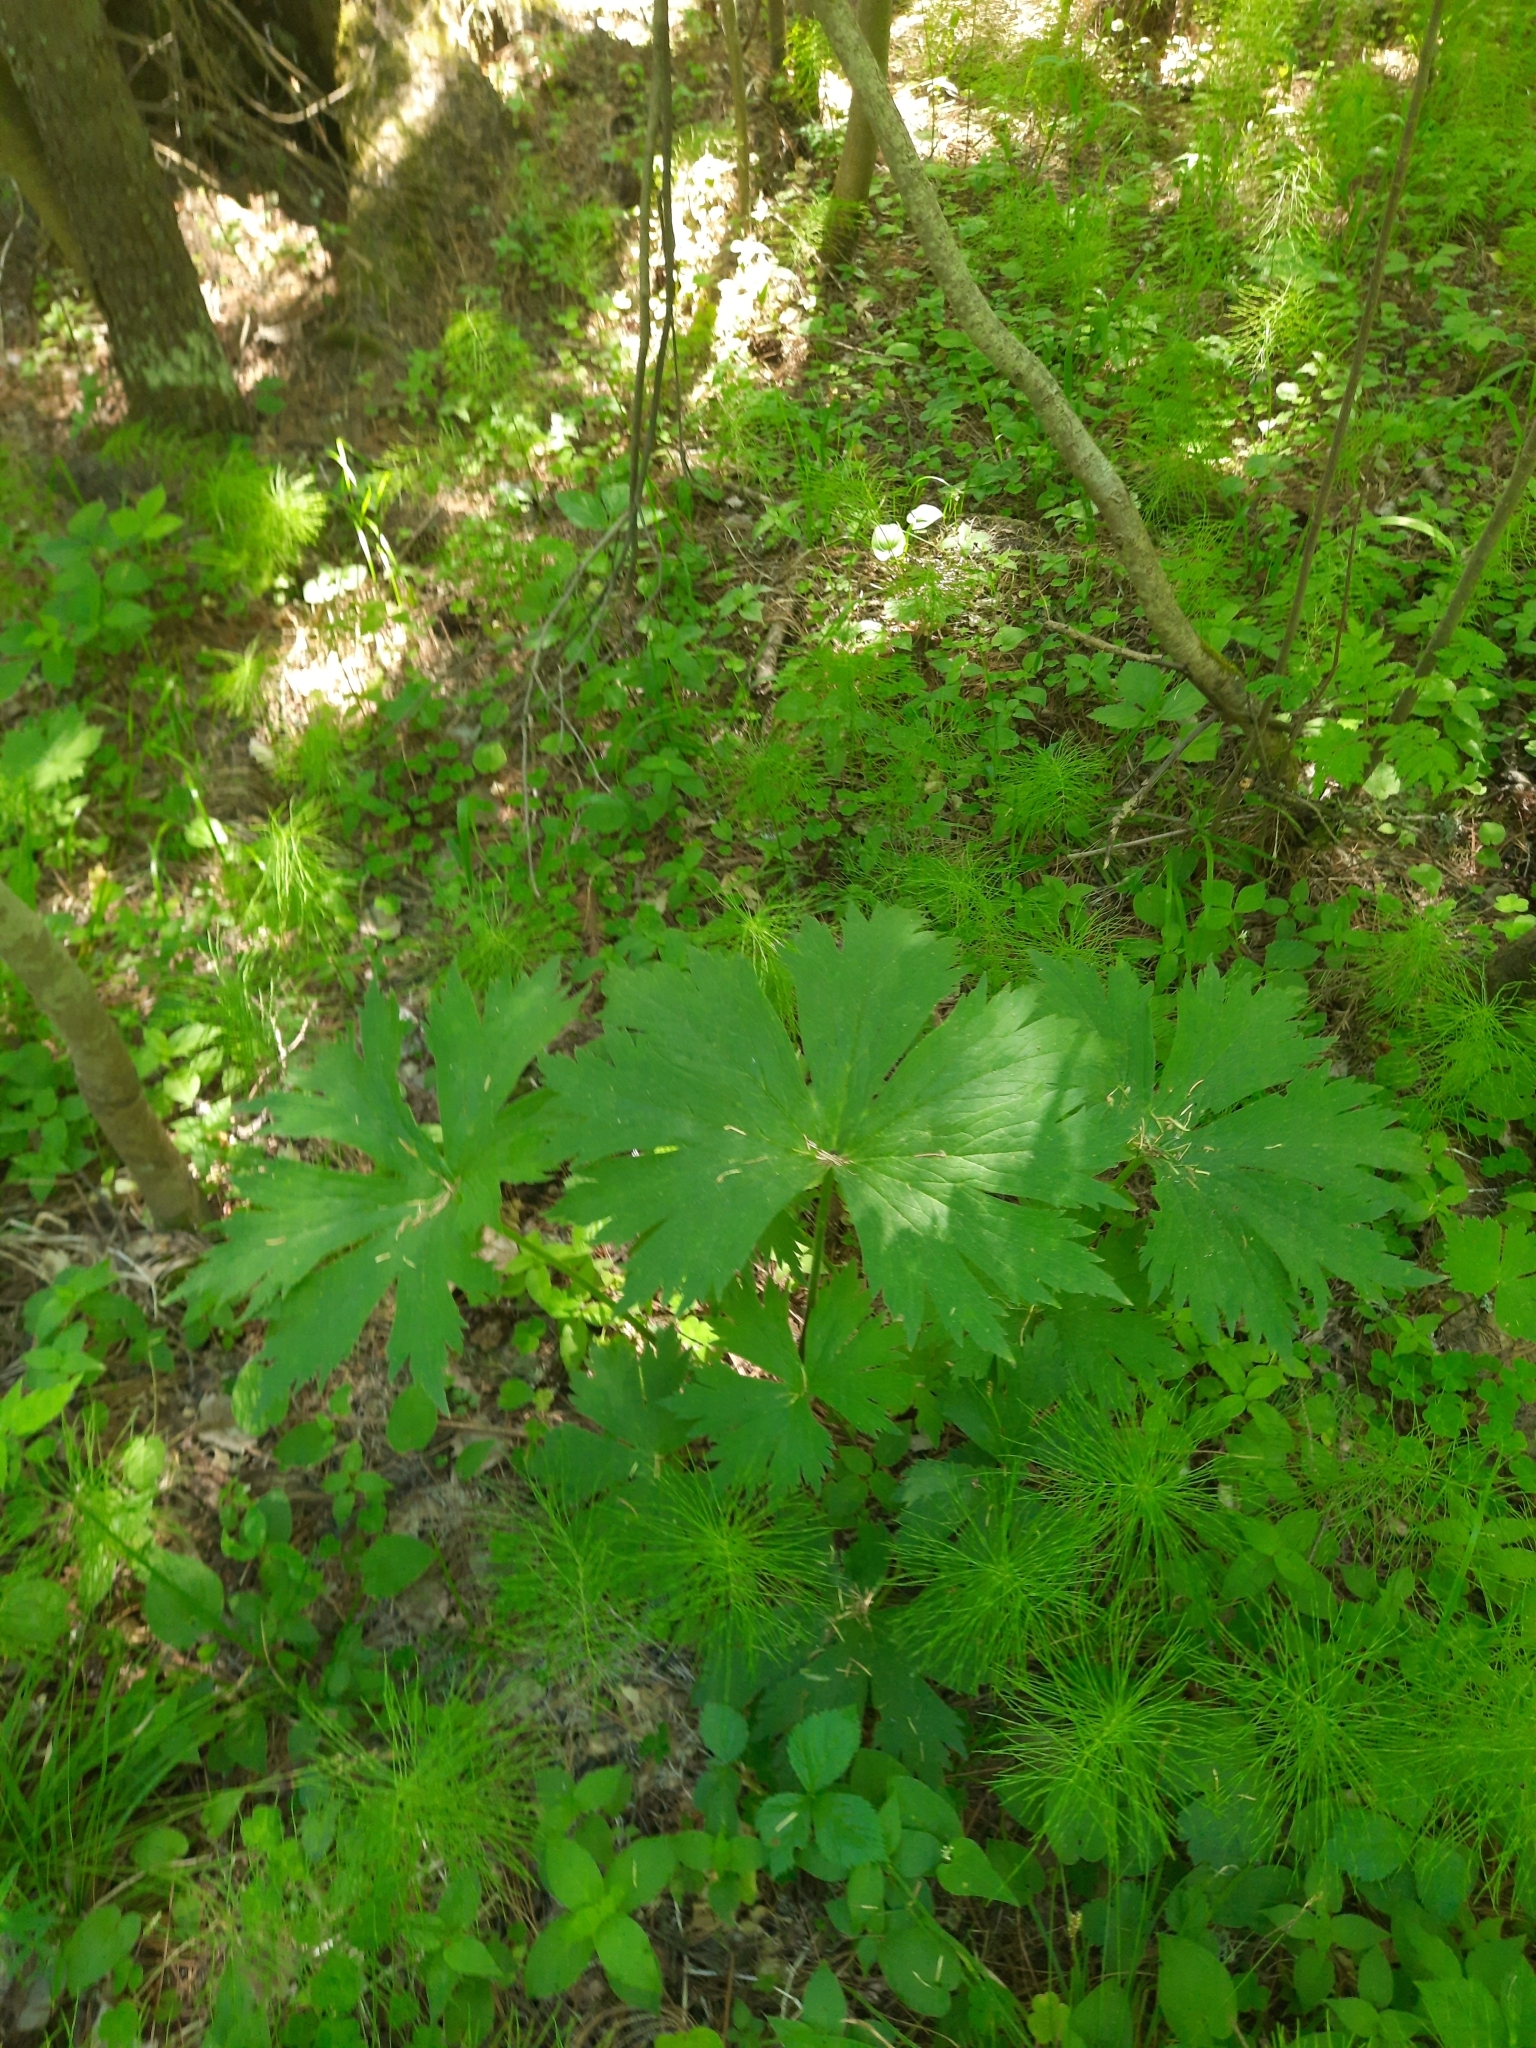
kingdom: Plantae
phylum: Tracheophyta
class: Magnoliopsida
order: Ranunculales
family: Ranunculaceae
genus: Aconitum
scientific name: Aconitum septentrionale
